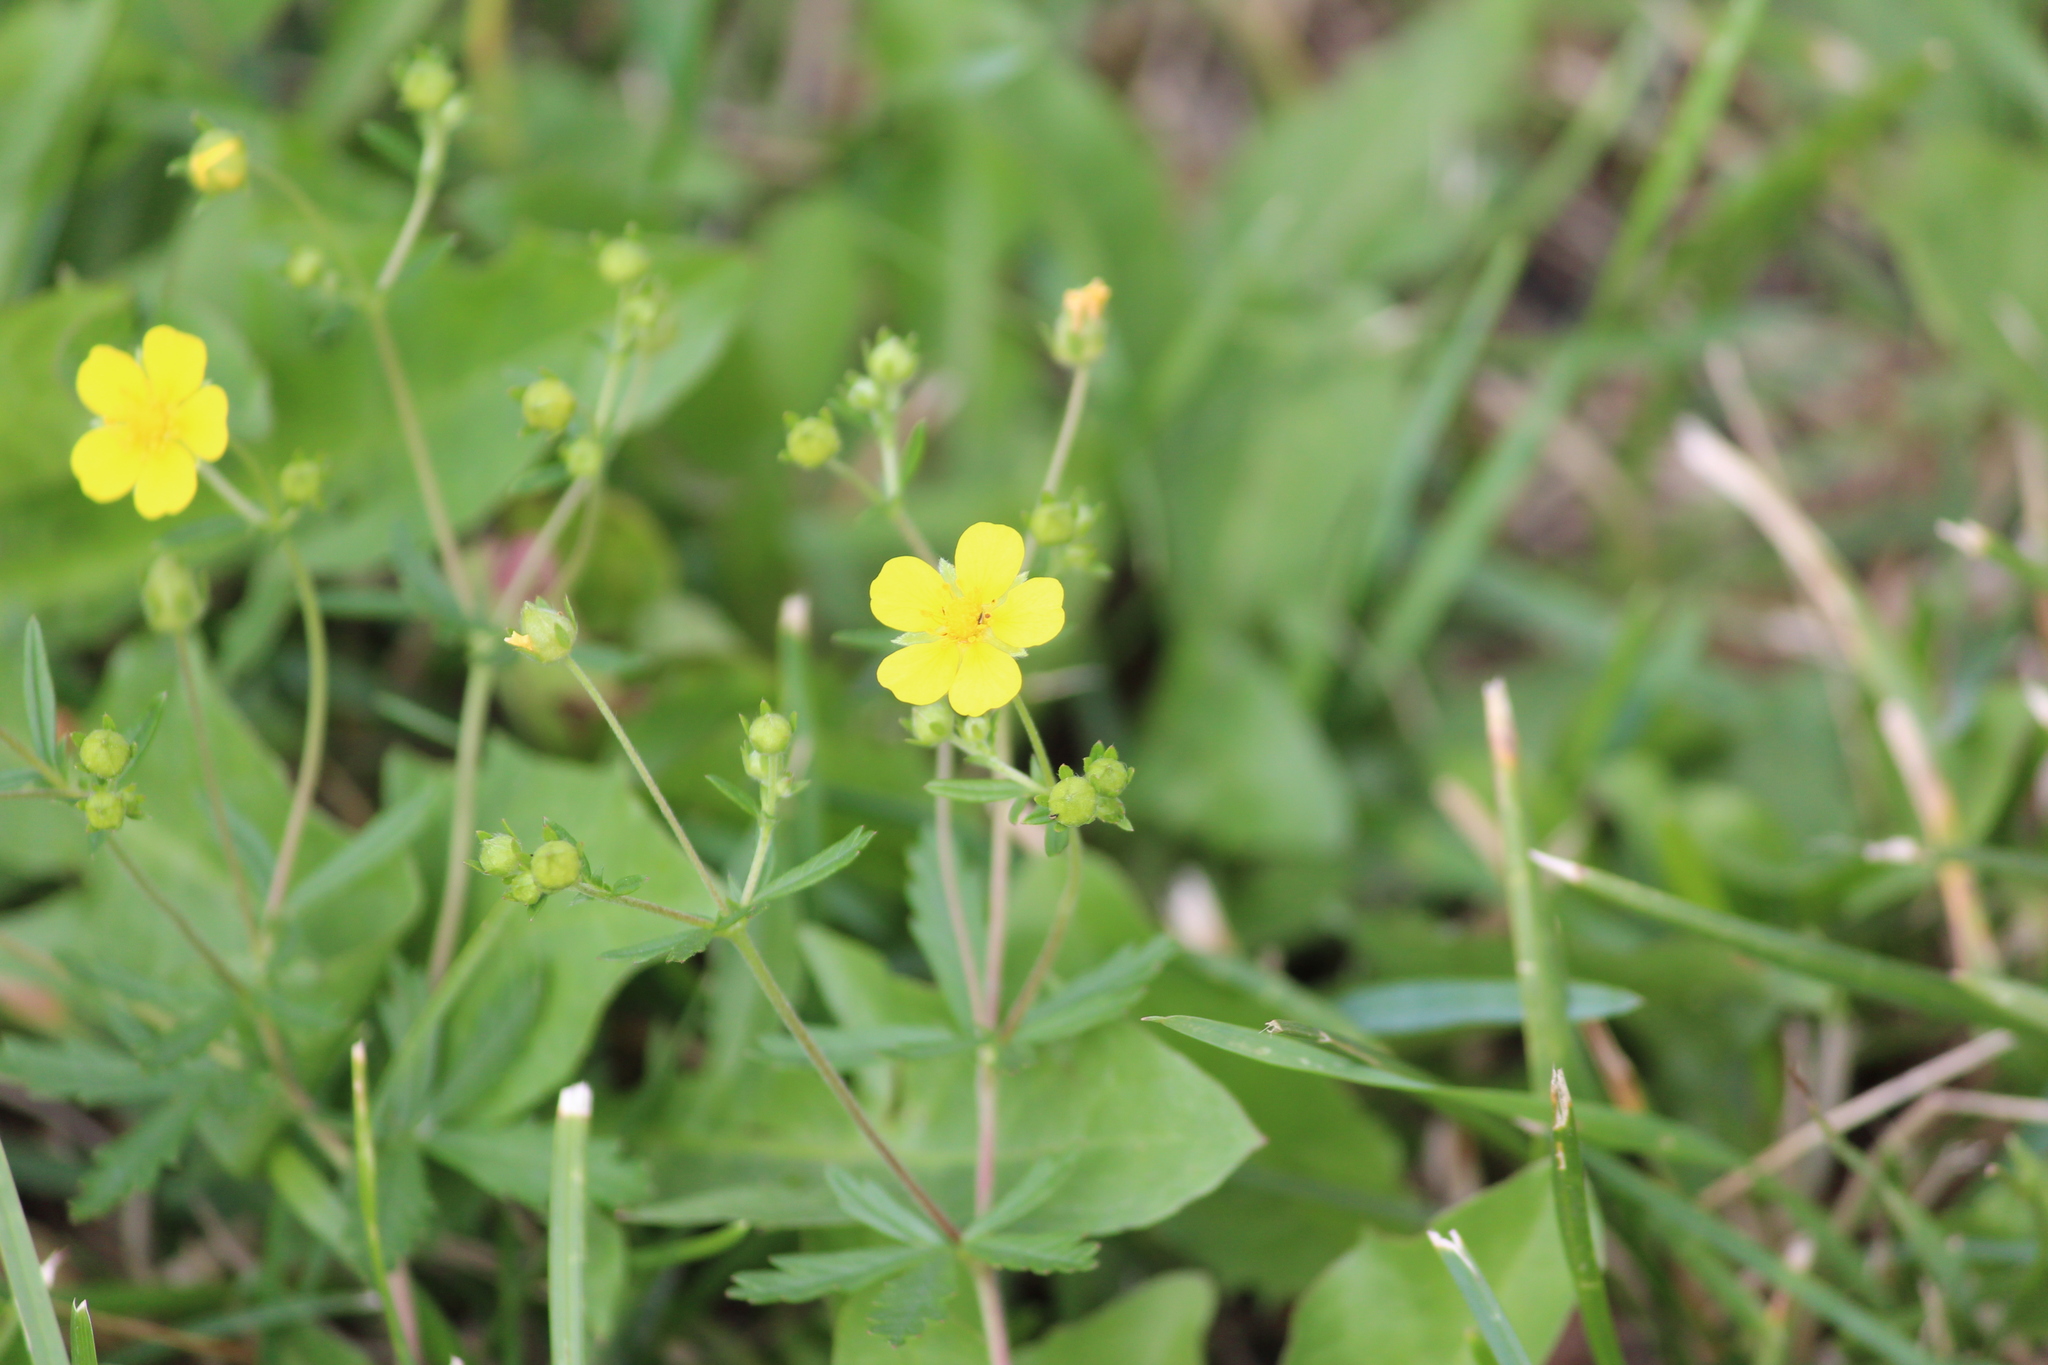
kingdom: Plantae
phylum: Tracheophyta
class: Magnoliopsida
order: Rosales
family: Rosaceae
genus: Potentilla
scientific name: Potentilla argentea
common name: Hoary cinquefoil
